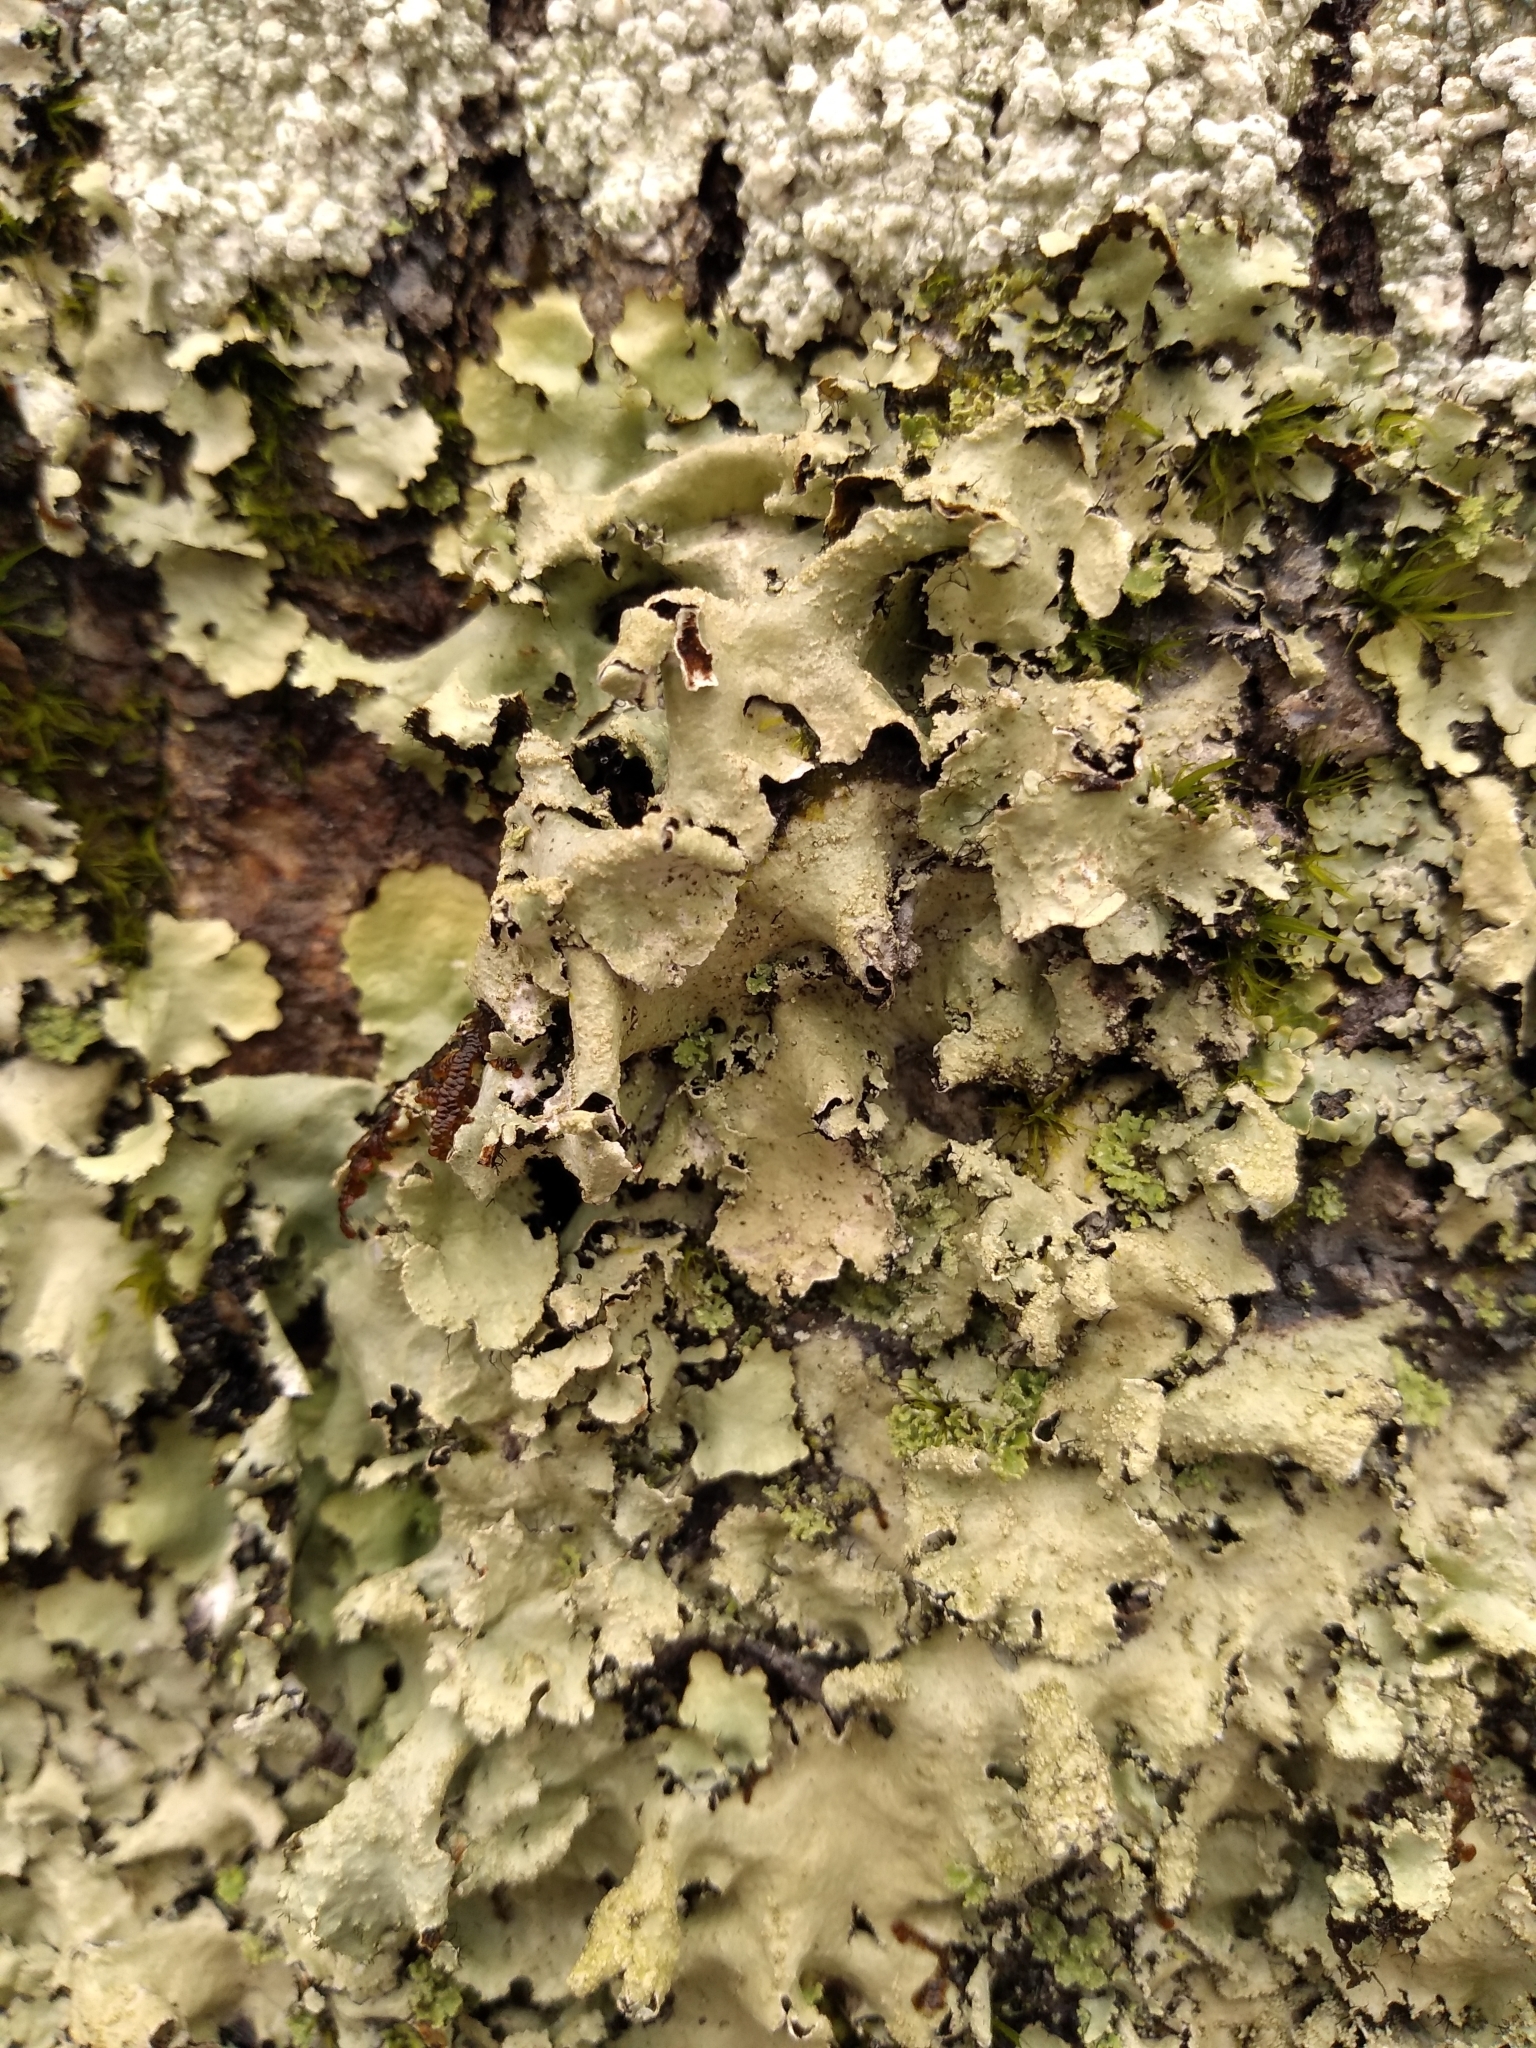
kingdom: Fungi
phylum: Ascomycota
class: Lecanoromycetes
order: Lecanorales
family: Parmeliaceae
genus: Parmotrema
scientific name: Parmotrema crinitum
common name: Salted ruffle lichen
